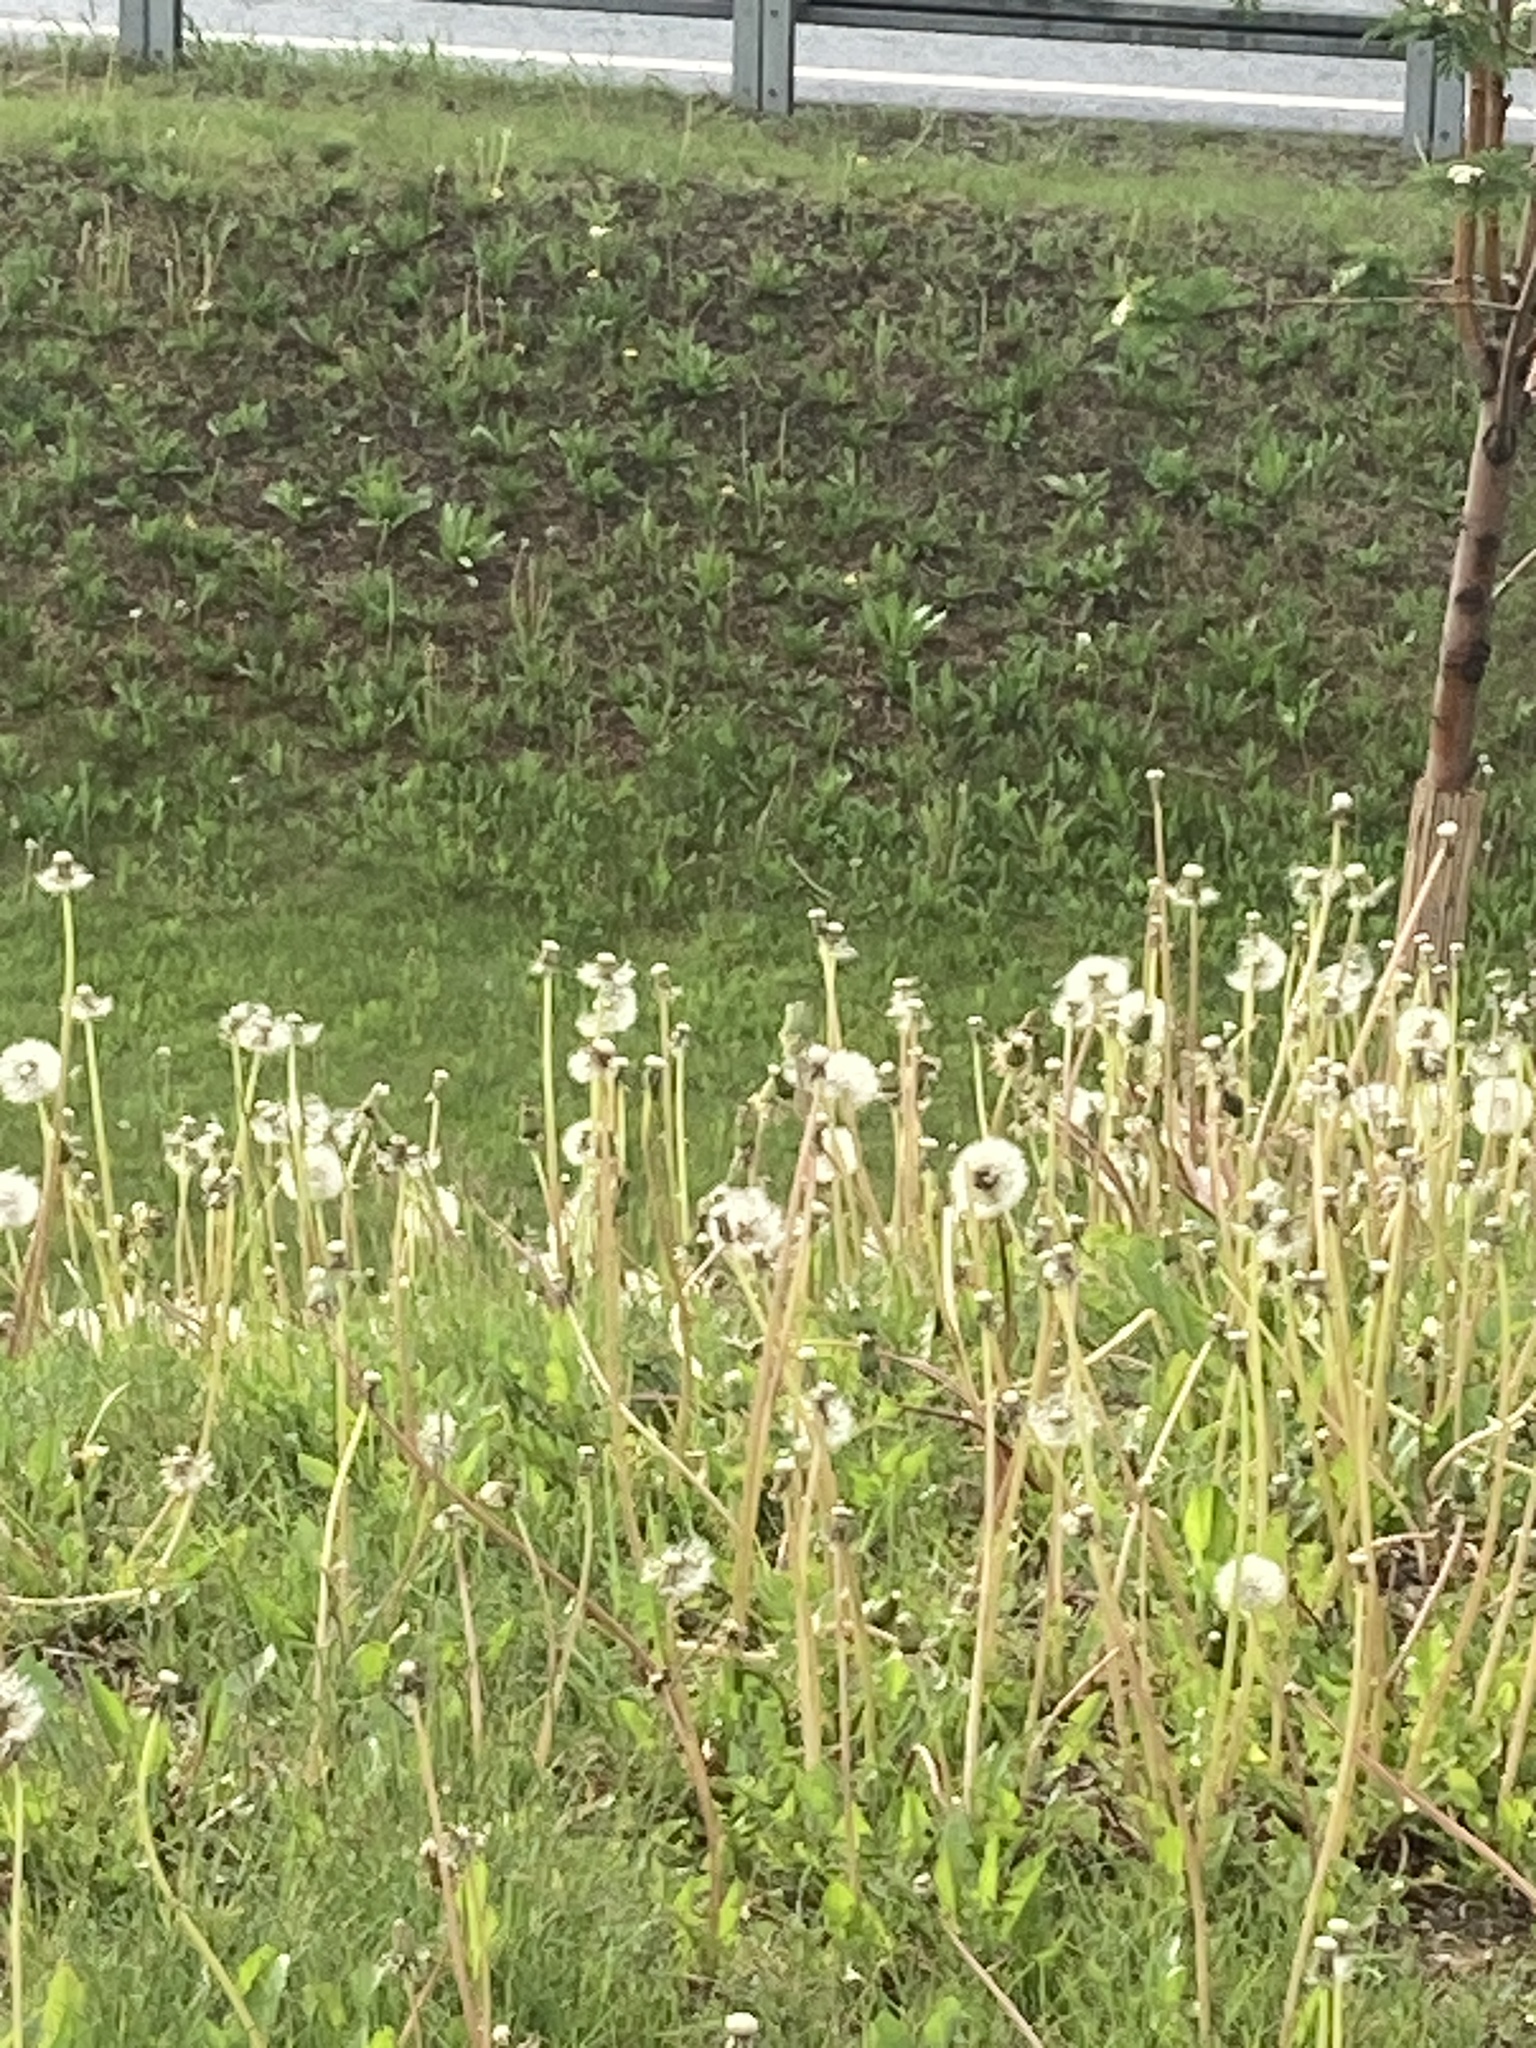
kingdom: Plantae
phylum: Tracheophyta
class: Magnoliopsida
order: Asterales
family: Asteraceae
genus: Taraxacum
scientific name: Taraxacum officinale
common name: Common dandelion
